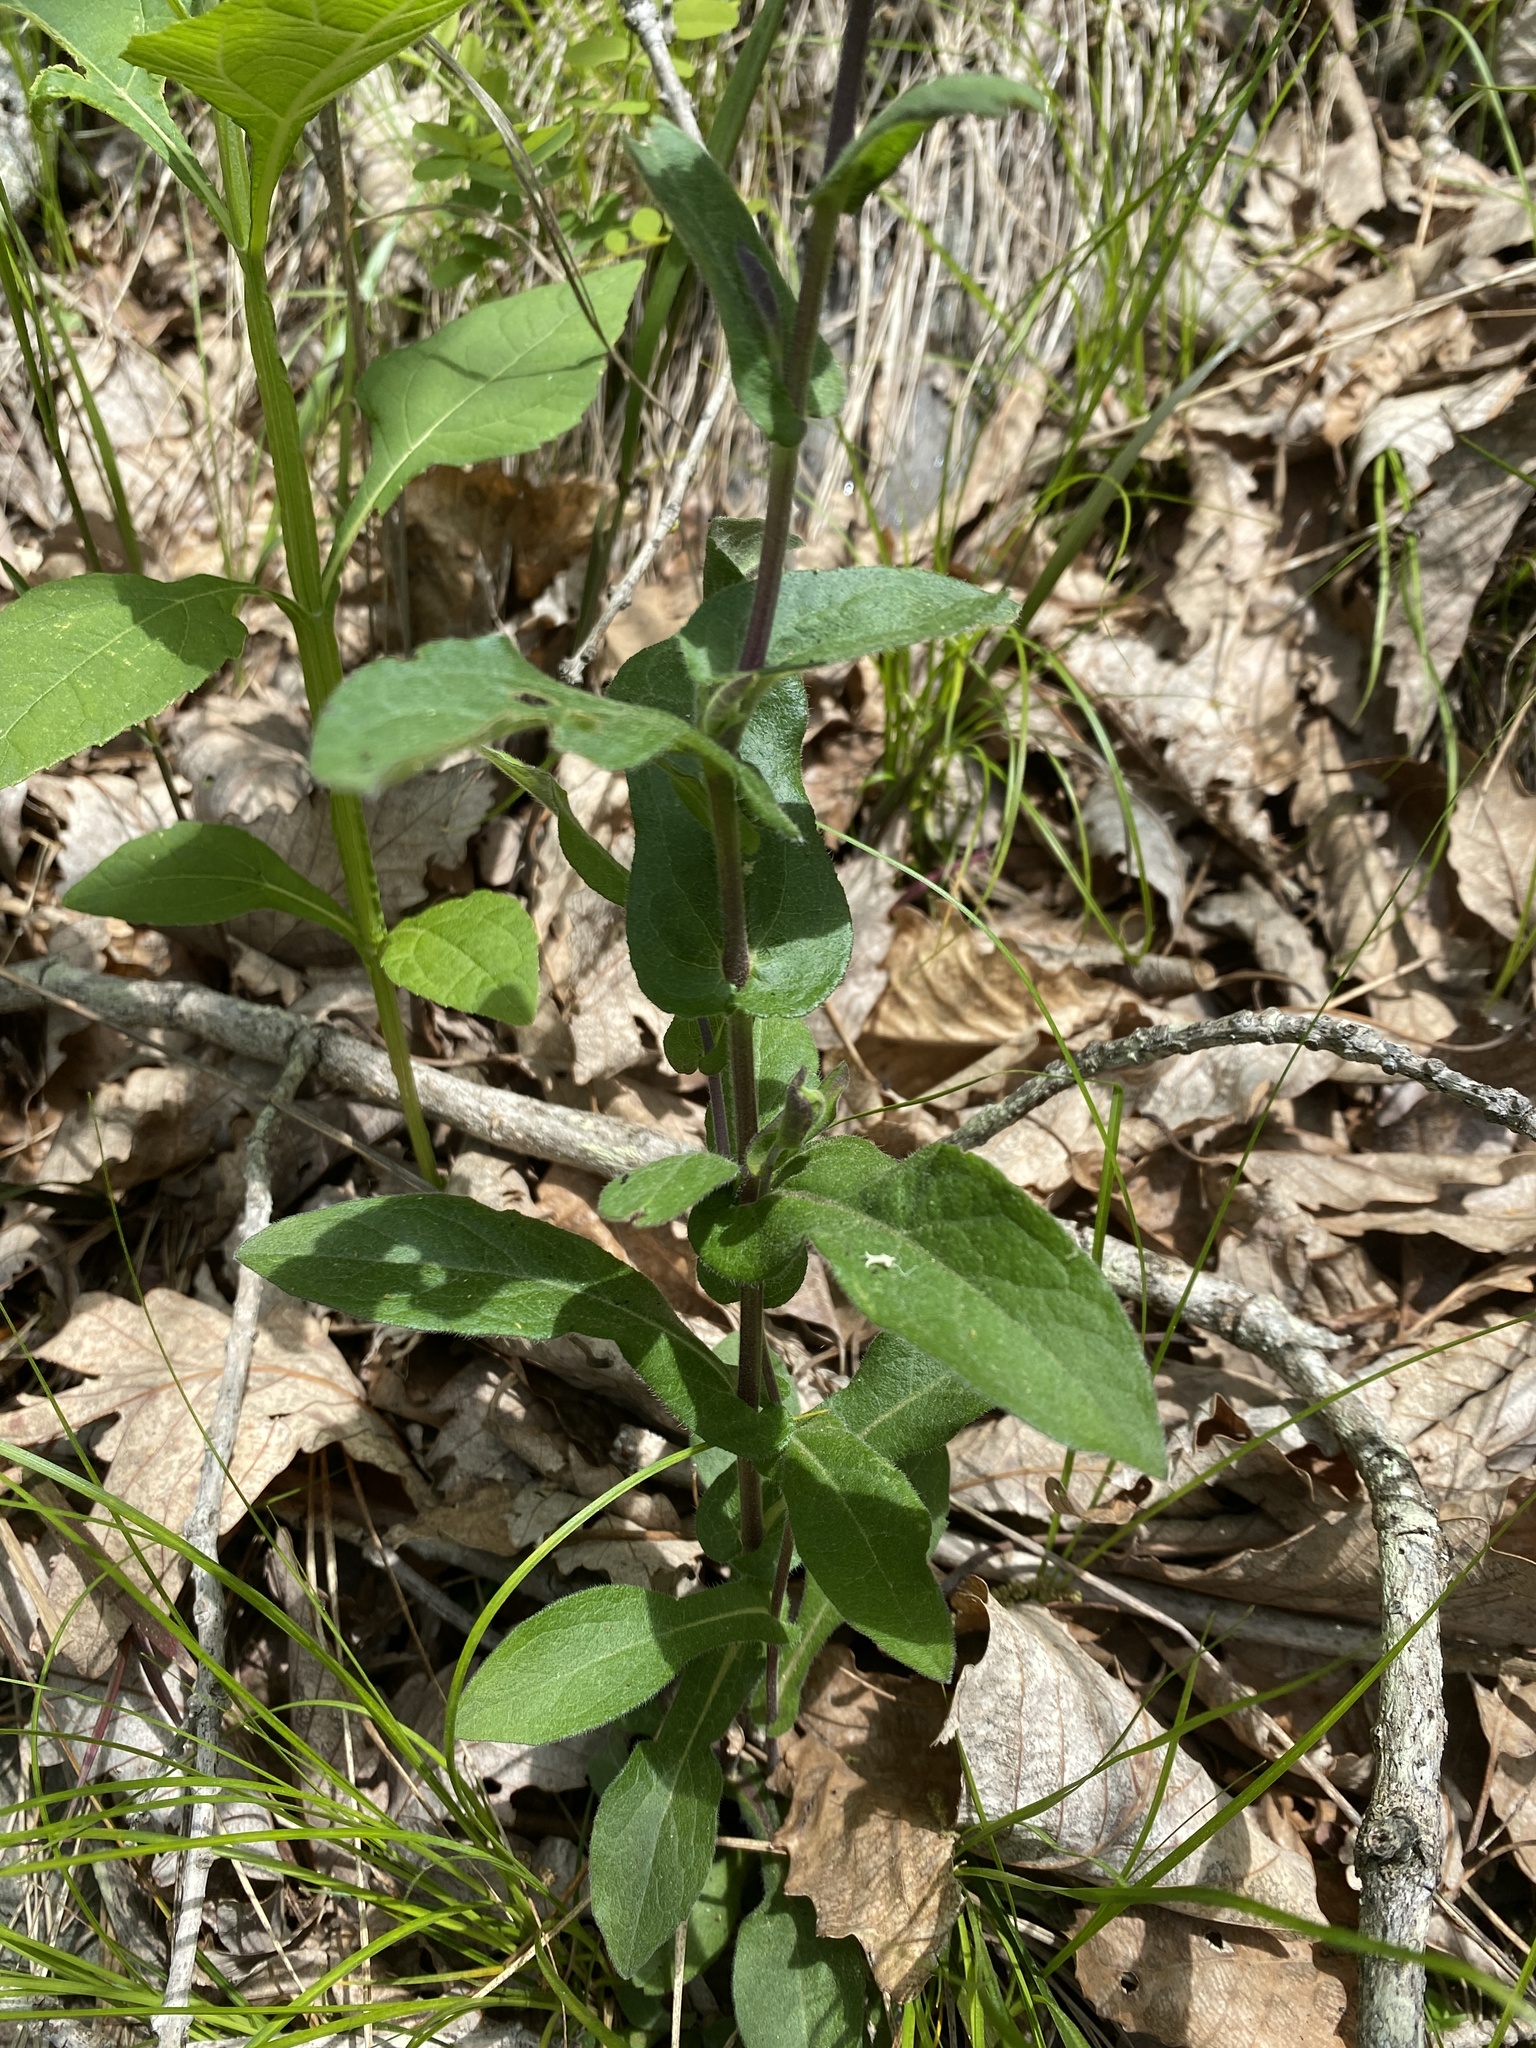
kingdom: Plantae
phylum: Tracheophyta
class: Magnoliopsida
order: Asterales
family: Asteraceae
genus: Symphyotrichum
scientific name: Symphyotrichum phlogifolium
